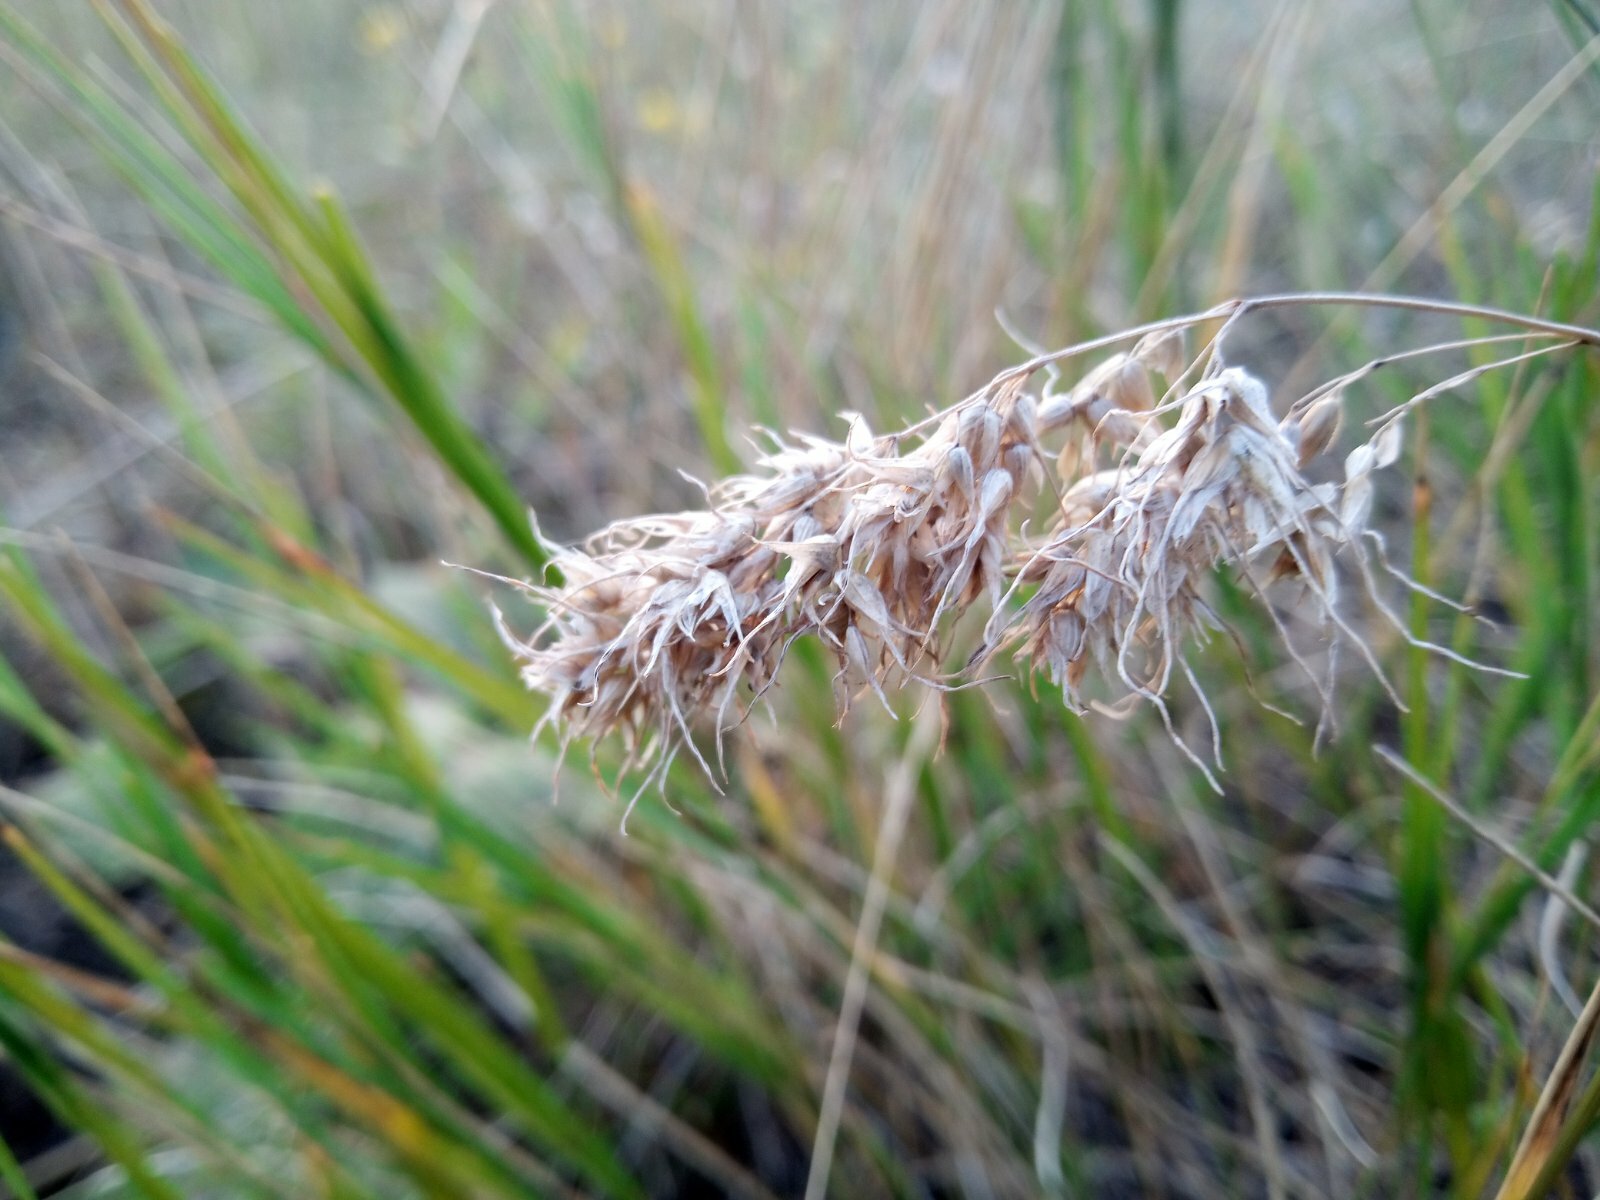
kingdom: Plantae
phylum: Tracheophyta
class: Liliopsida
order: Poales
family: Poaceae
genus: Poa
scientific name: Poa bulbosa
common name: Bulbous bluegrass
